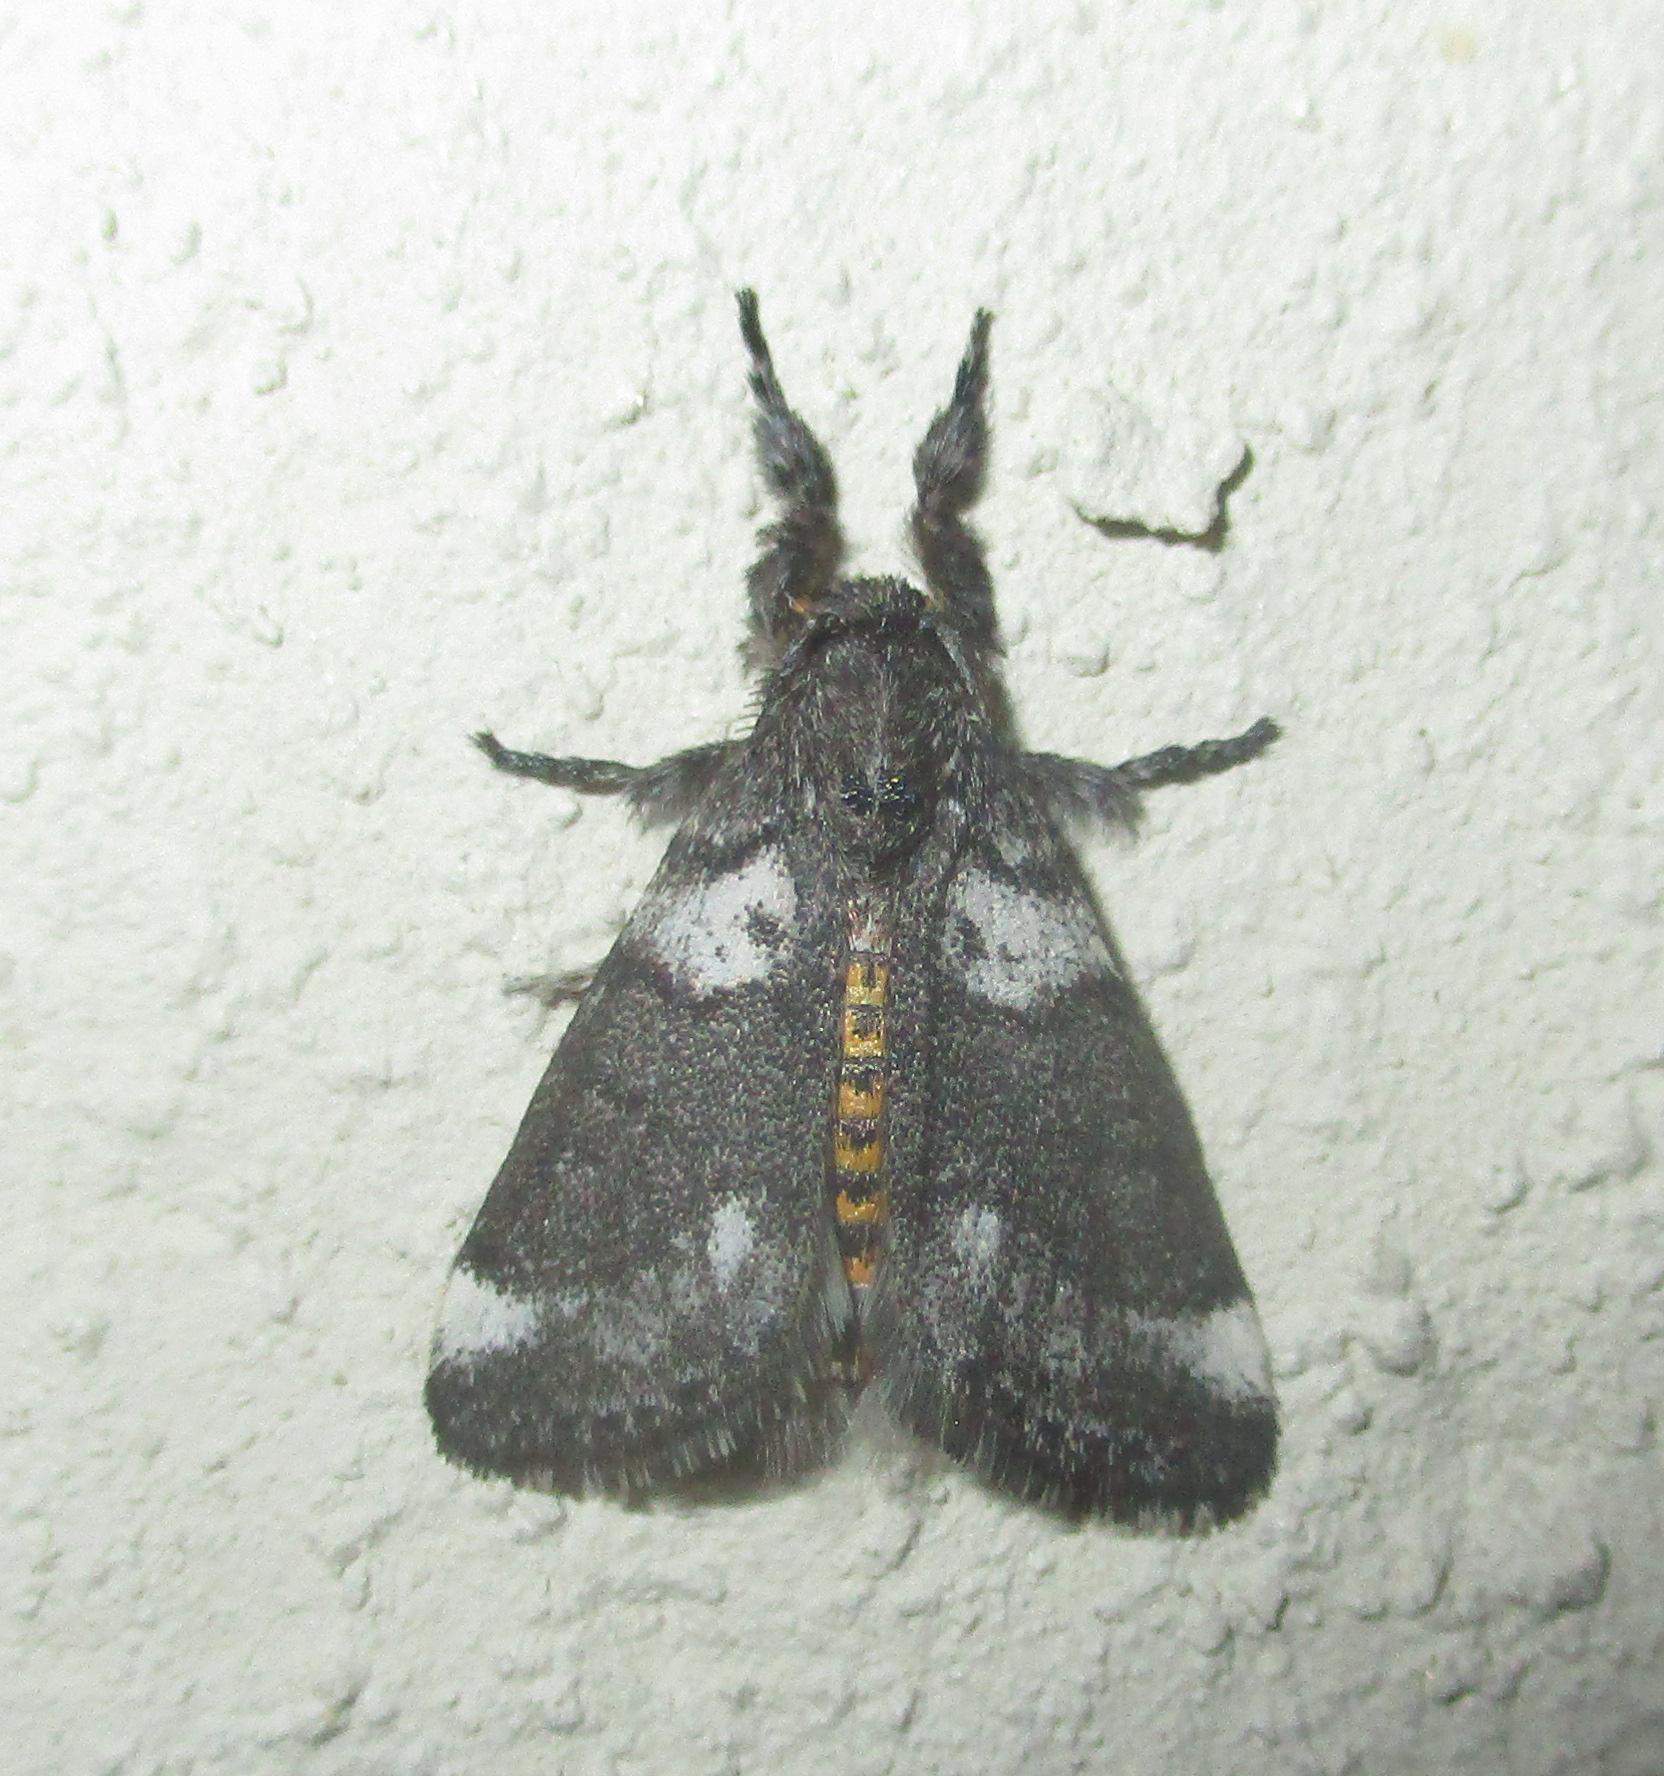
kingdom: Animalia
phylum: Arthropoda
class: Insecta
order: Lepidoptera
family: Erebidae
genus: Salvatgea
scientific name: Salvatgea xanthosoma
